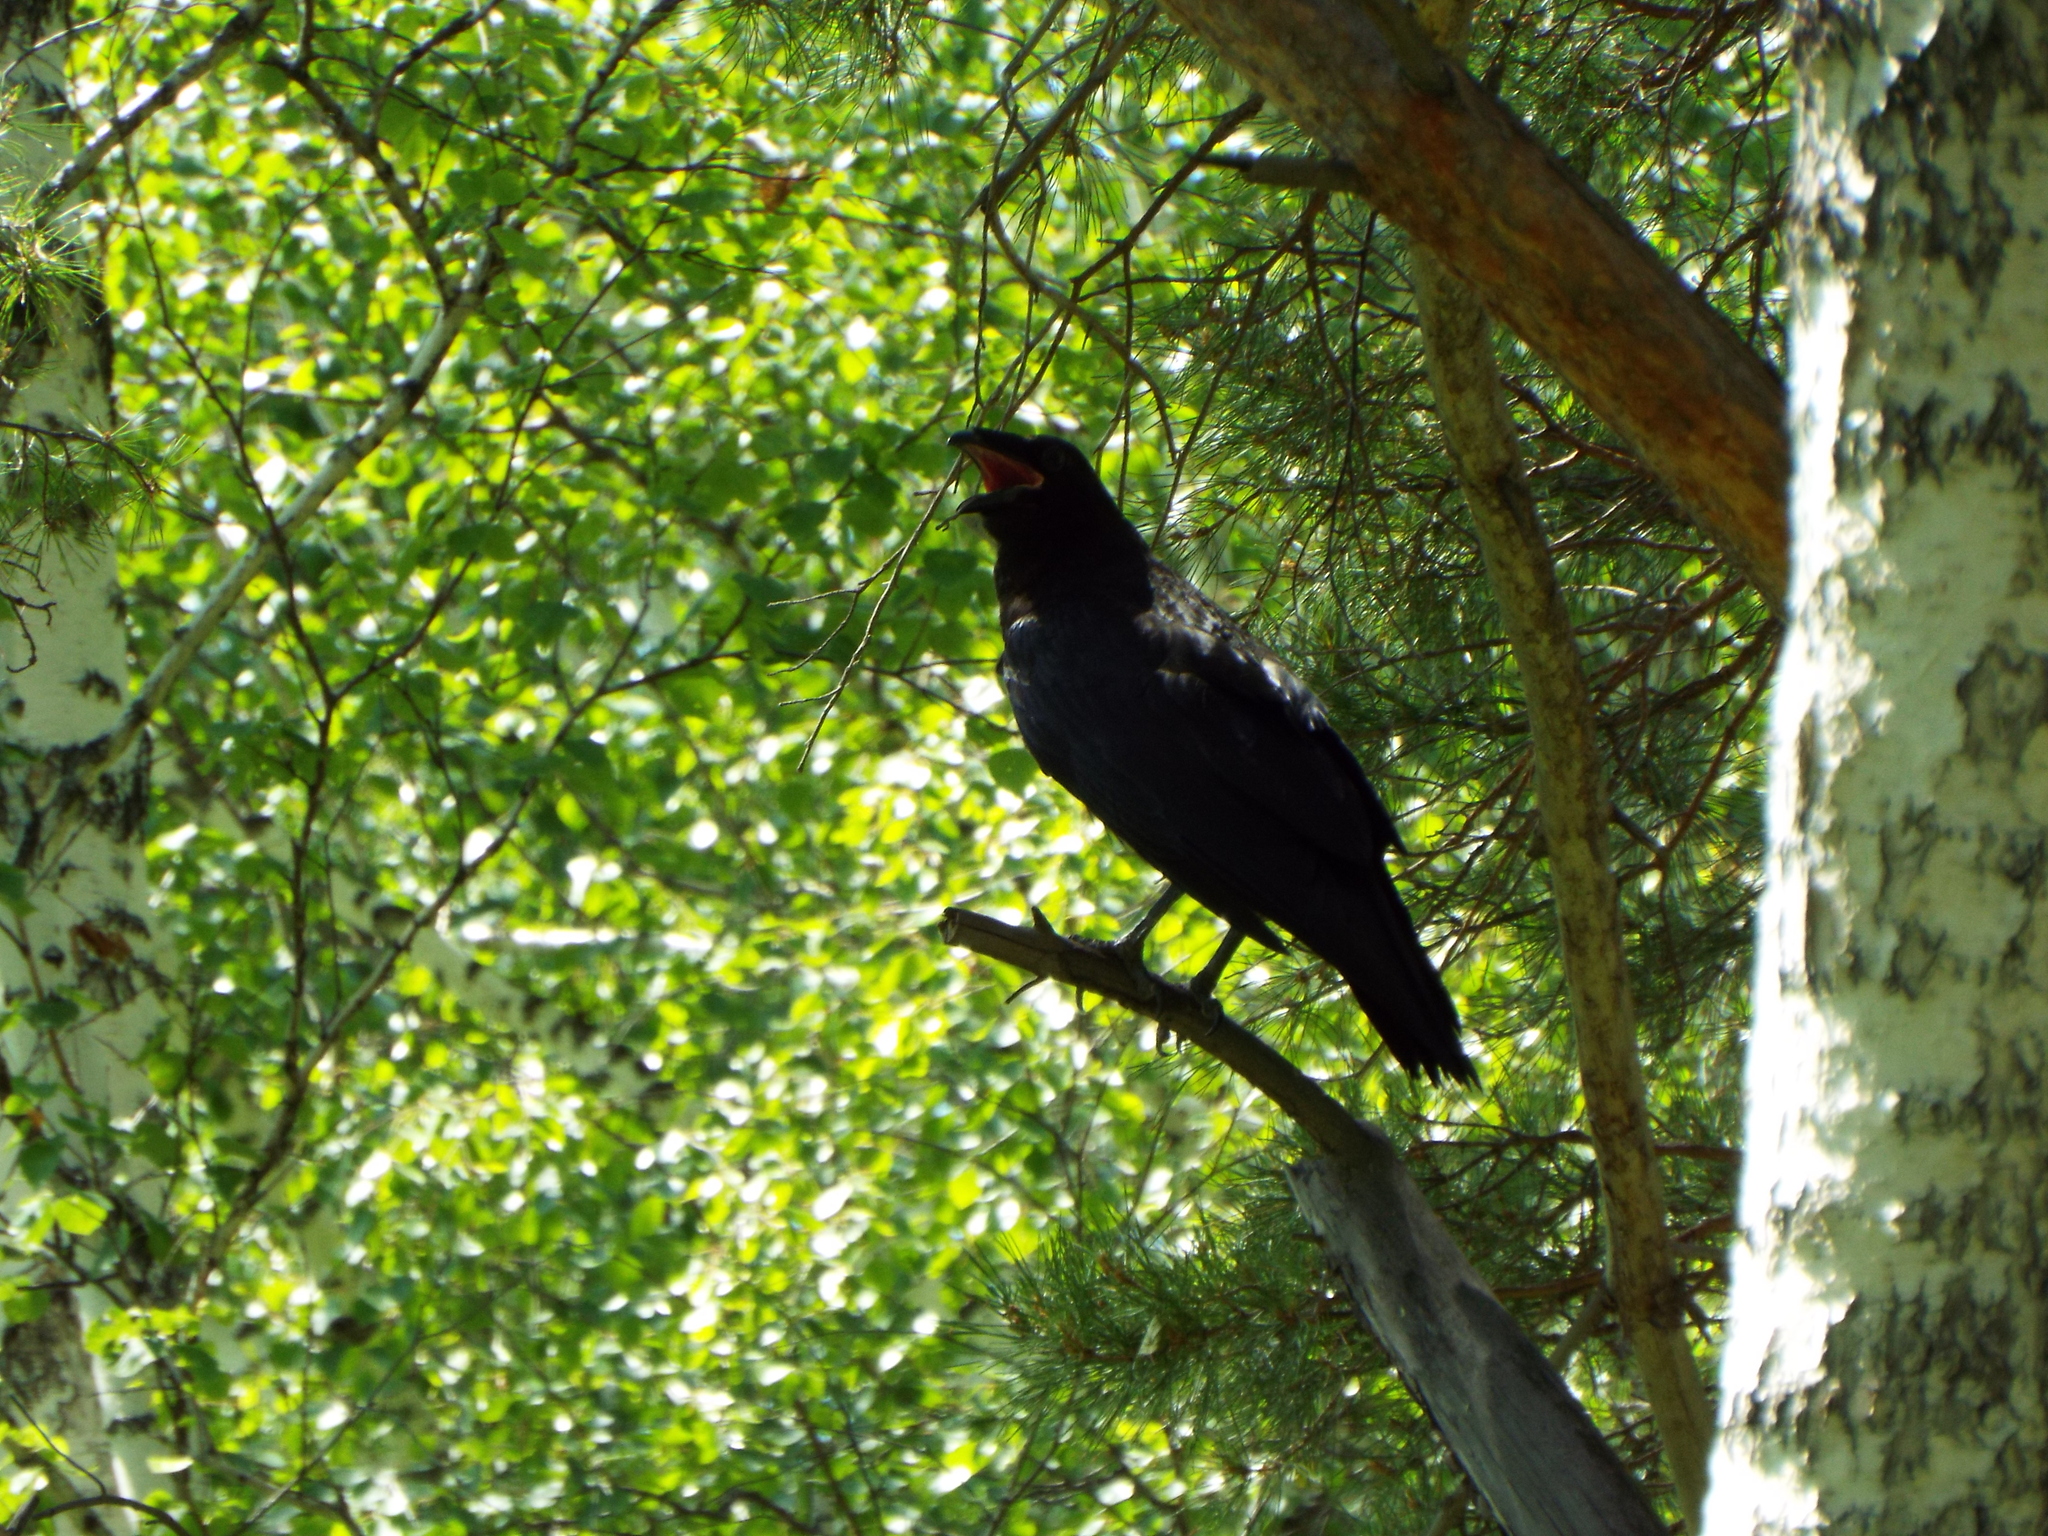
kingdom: Animalia
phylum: Chordata
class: Aves
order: Passeriformes
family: Corvidae
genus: Corvus
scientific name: Corvus corax
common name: Common raven
